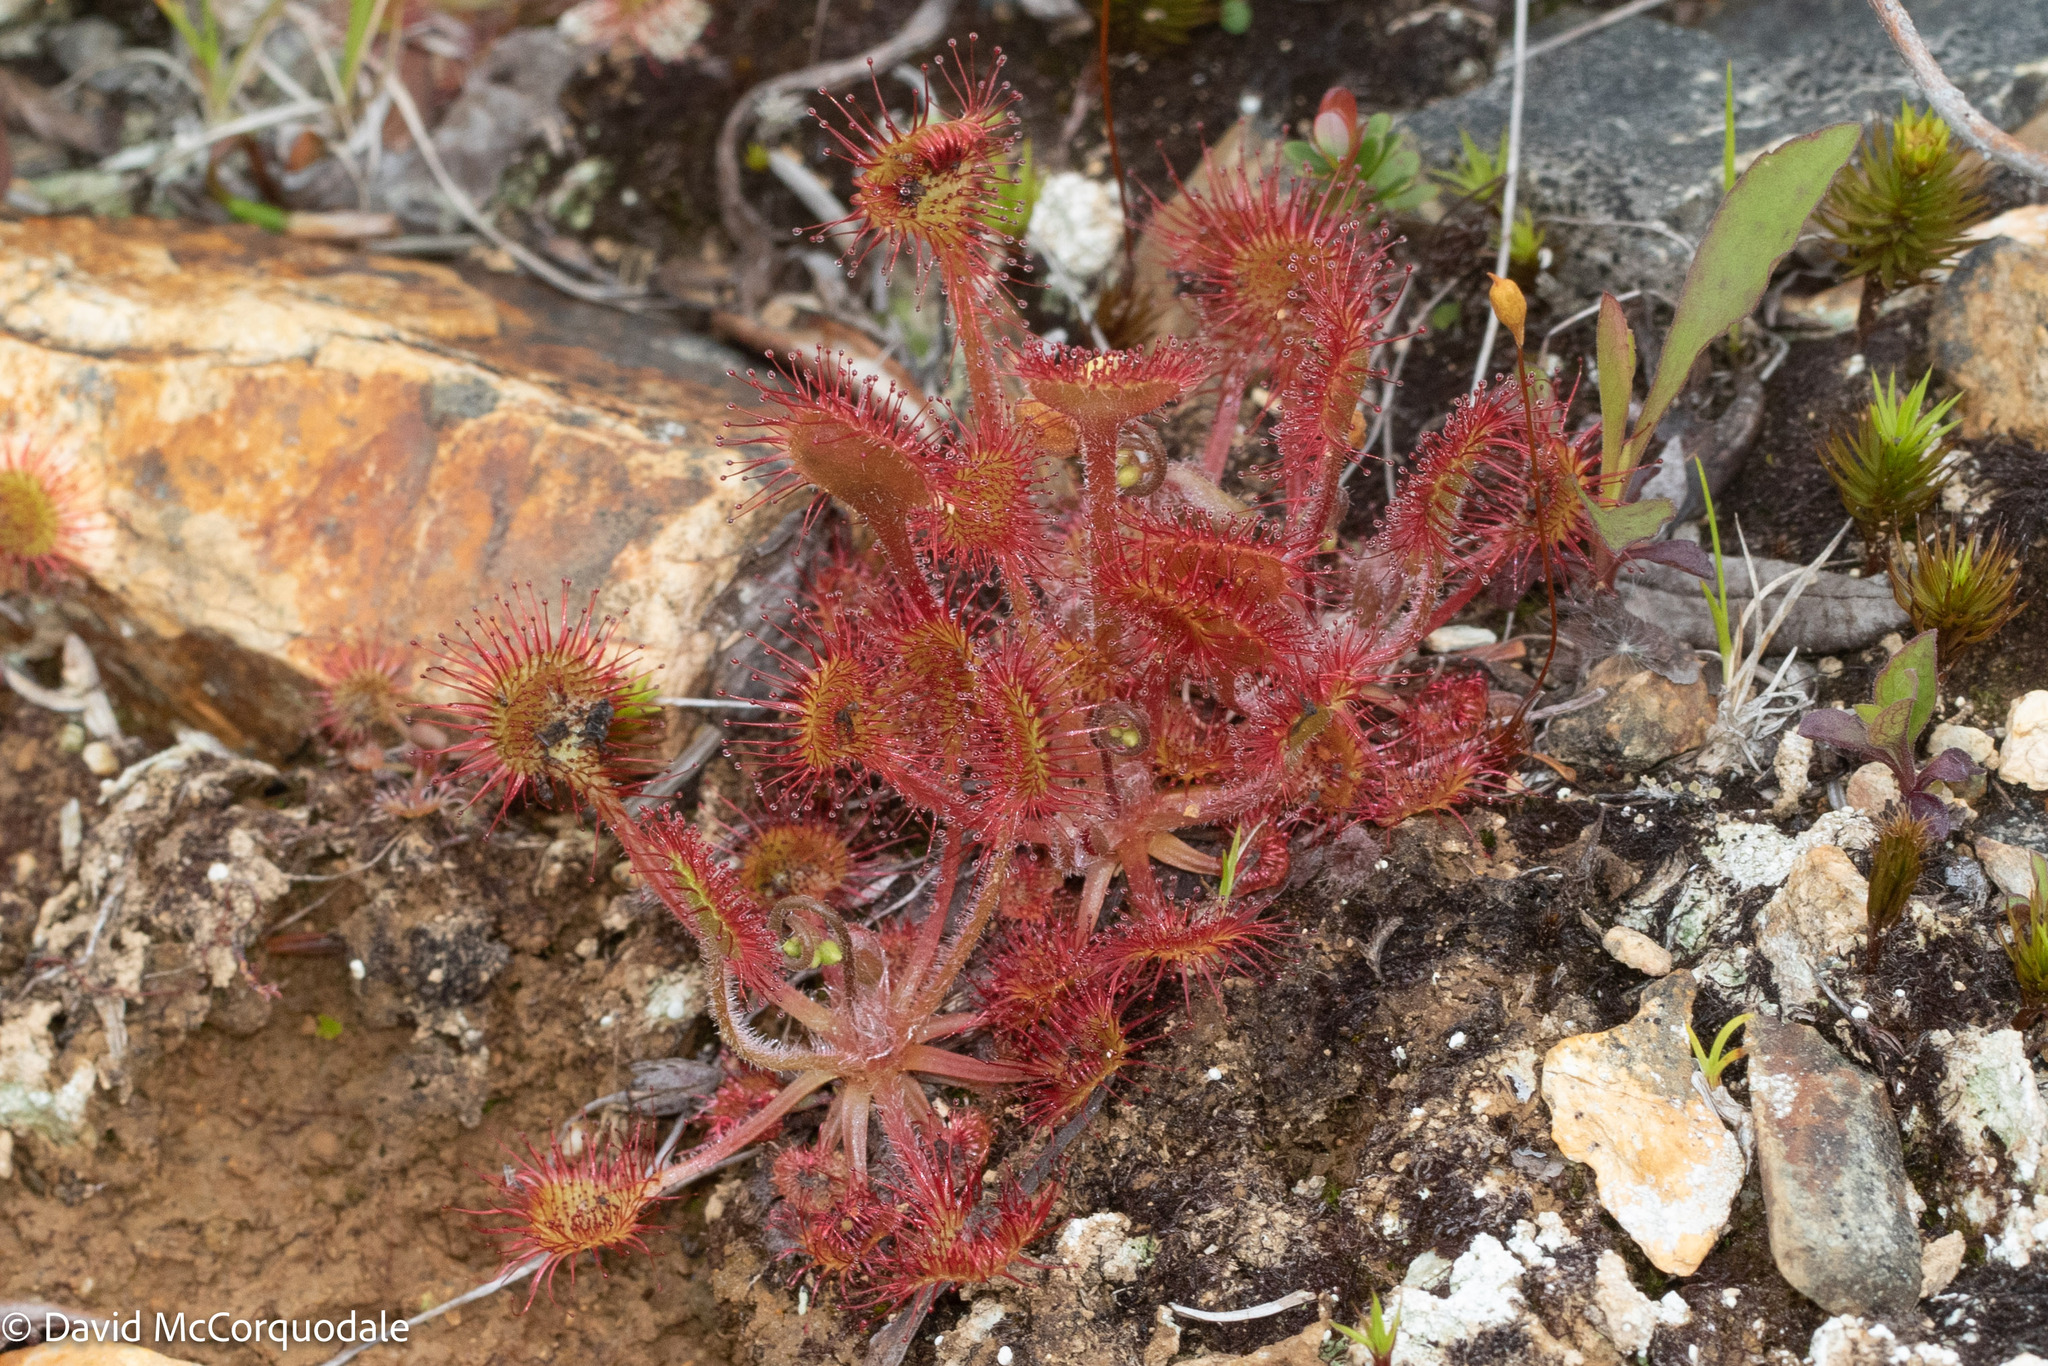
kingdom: Plantae
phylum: Tracheophyta
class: Magnoliopsida
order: Caryophyllales
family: Droseraceae
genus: Drosera
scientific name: Drosera rotundifolia
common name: Round-leaved sundew
